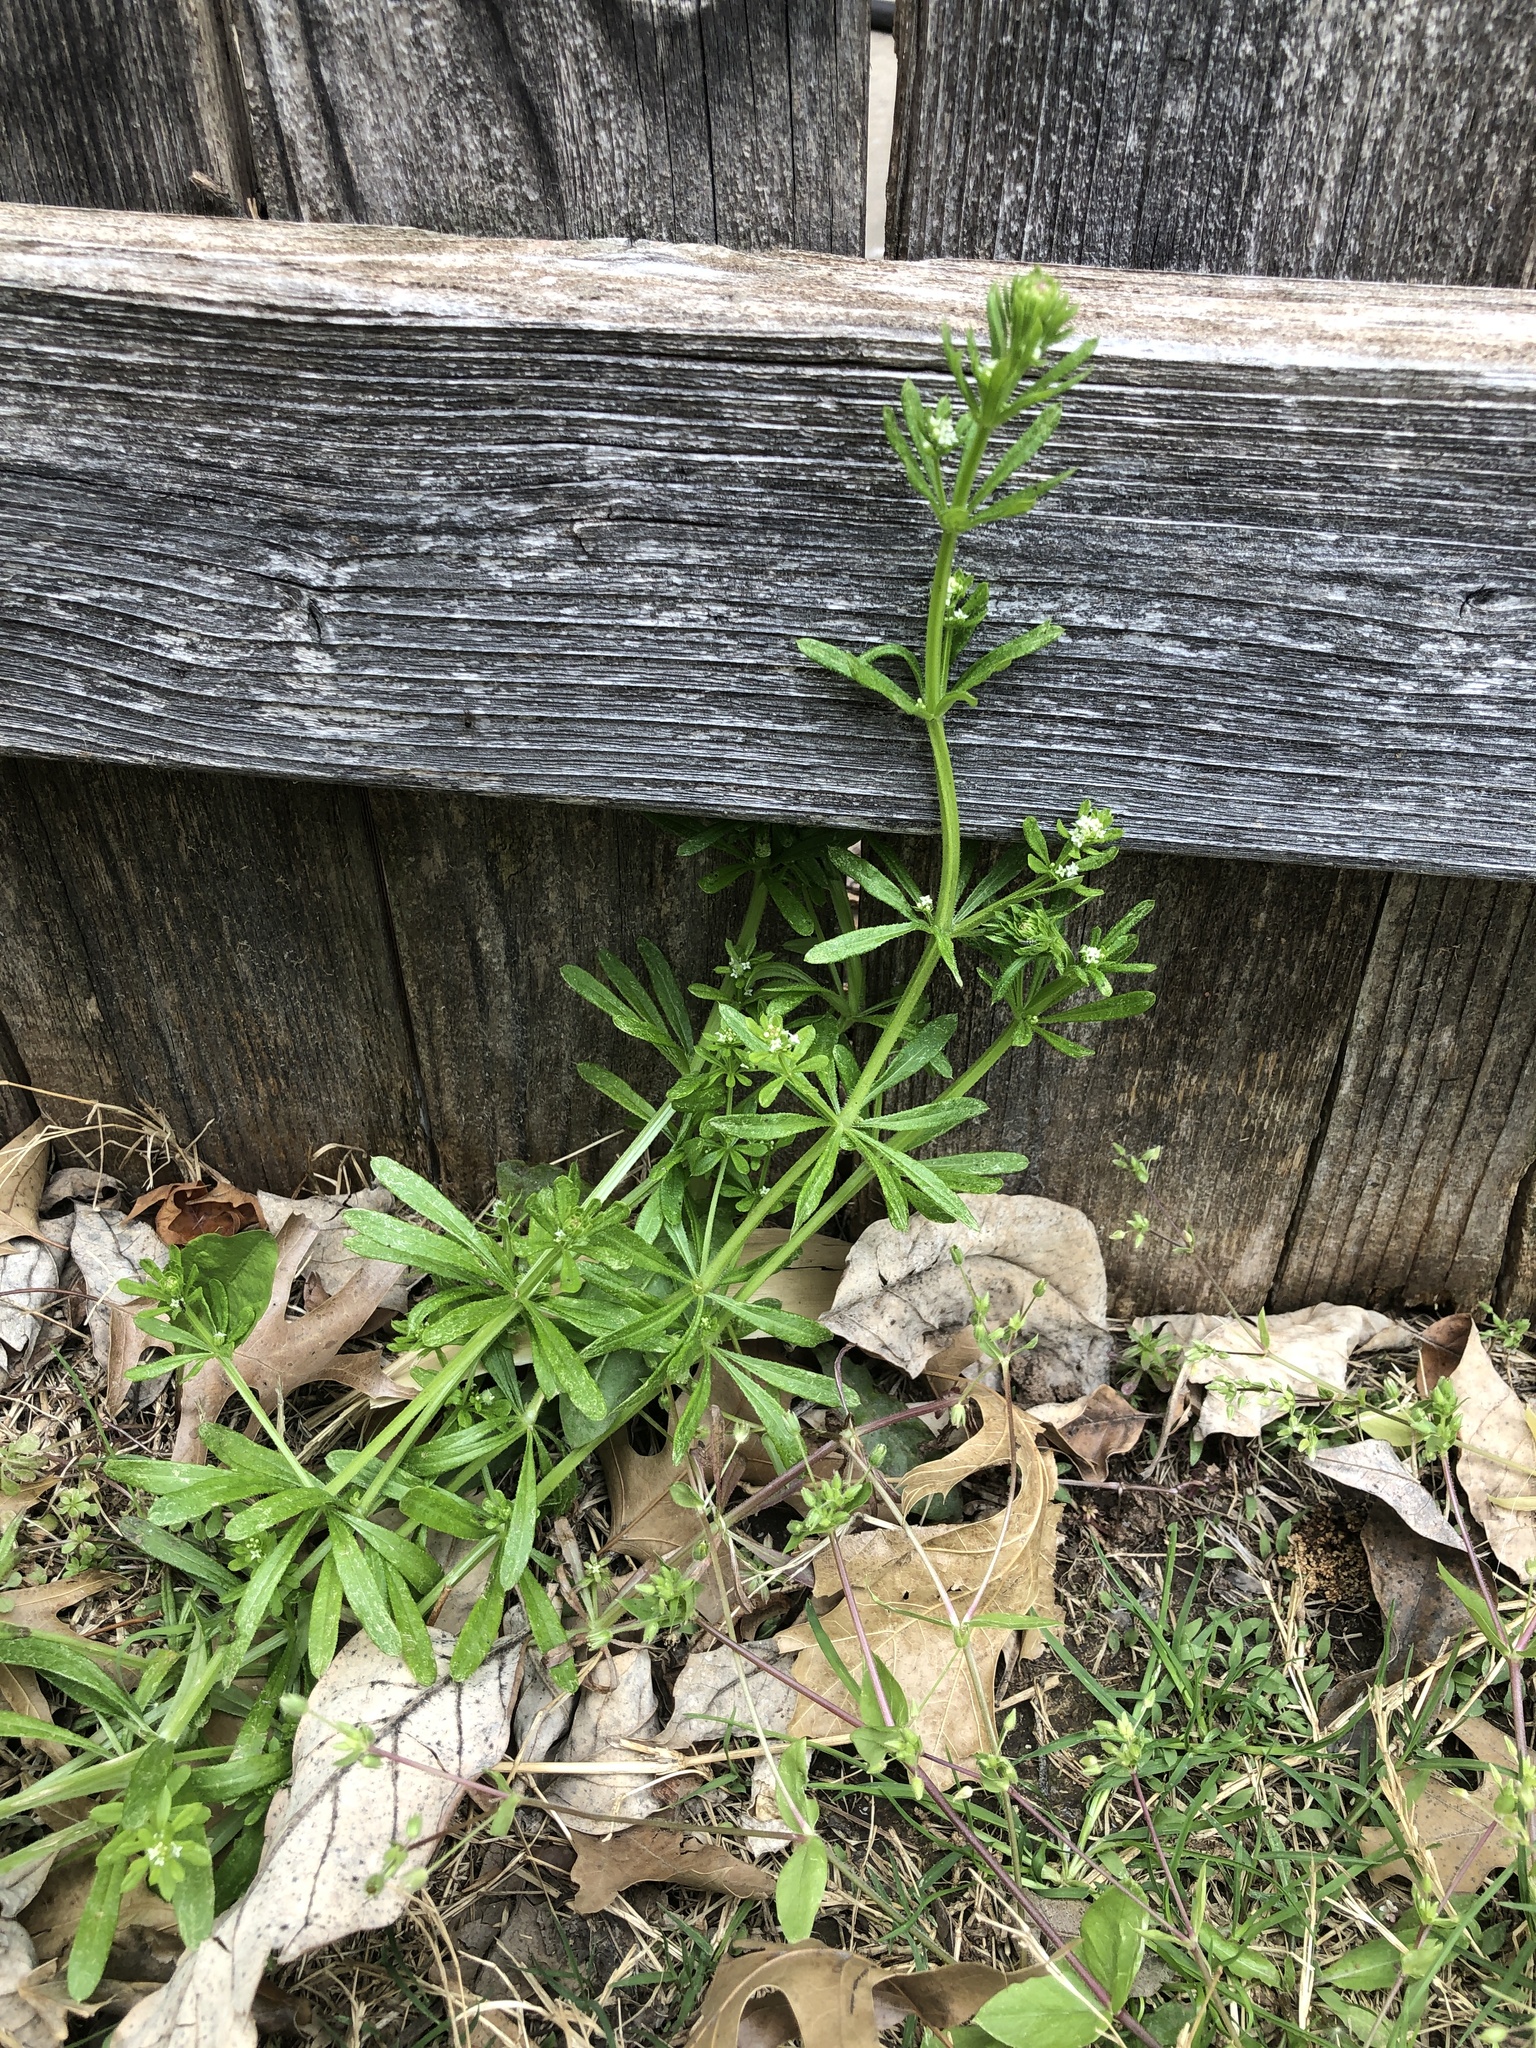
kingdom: Plantae
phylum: Tracheophyta
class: Magnoliopsida
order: Gentianales
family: Rubiaceae
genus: Galium
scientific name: Galium aparine
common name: Cleavers
